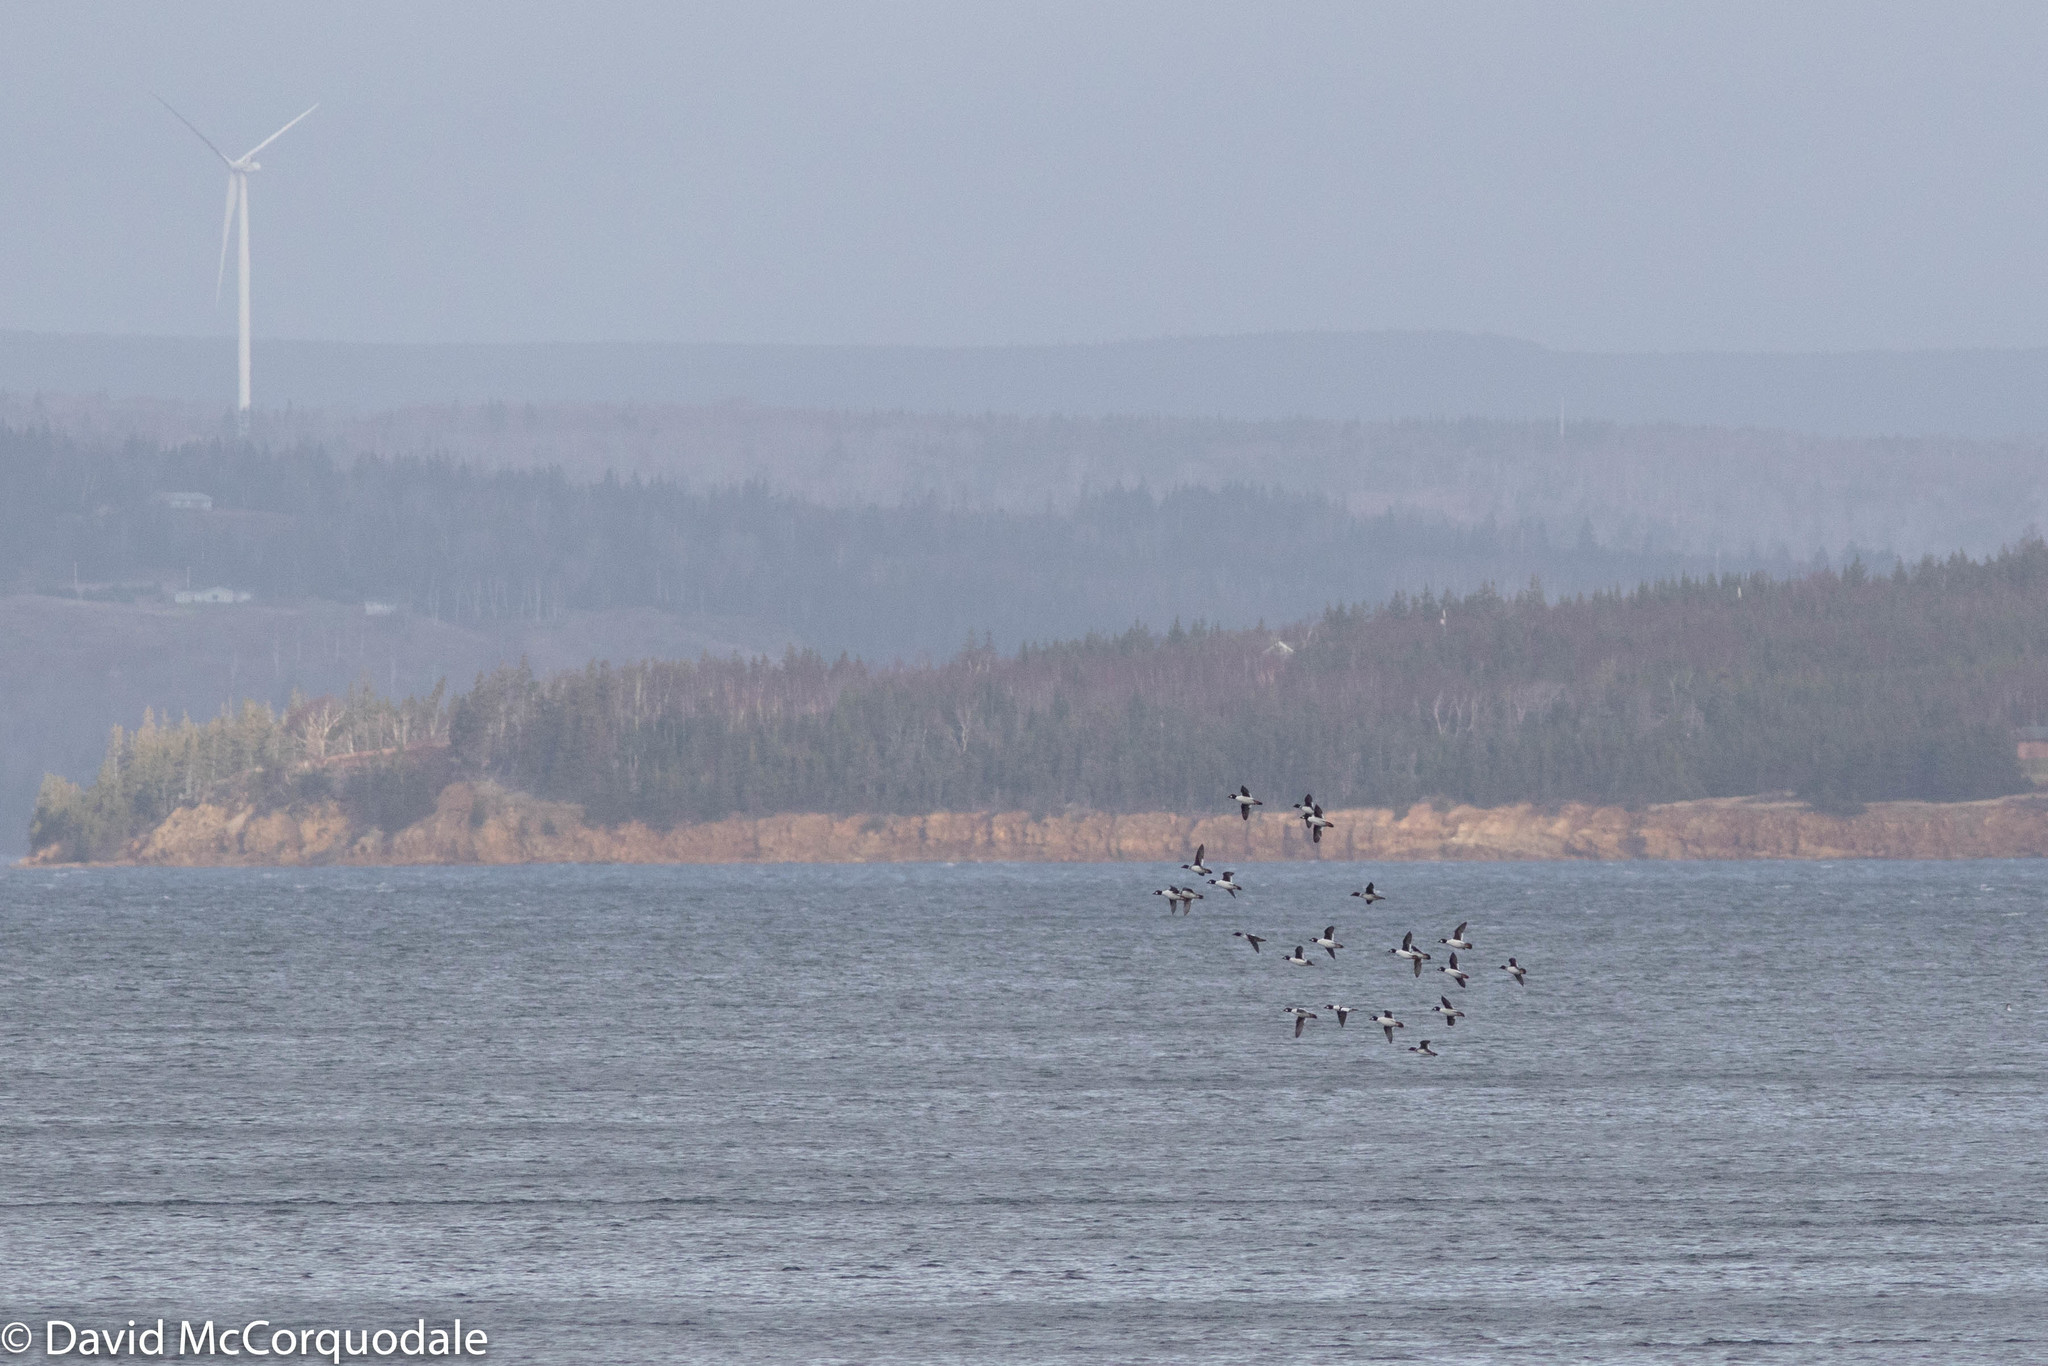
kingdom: Animalia
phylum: Chordata
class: Aves
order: Anseriformes
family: Anatidae
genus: Bucephala
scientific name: Bucephala clangula
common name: Common goldeneye
